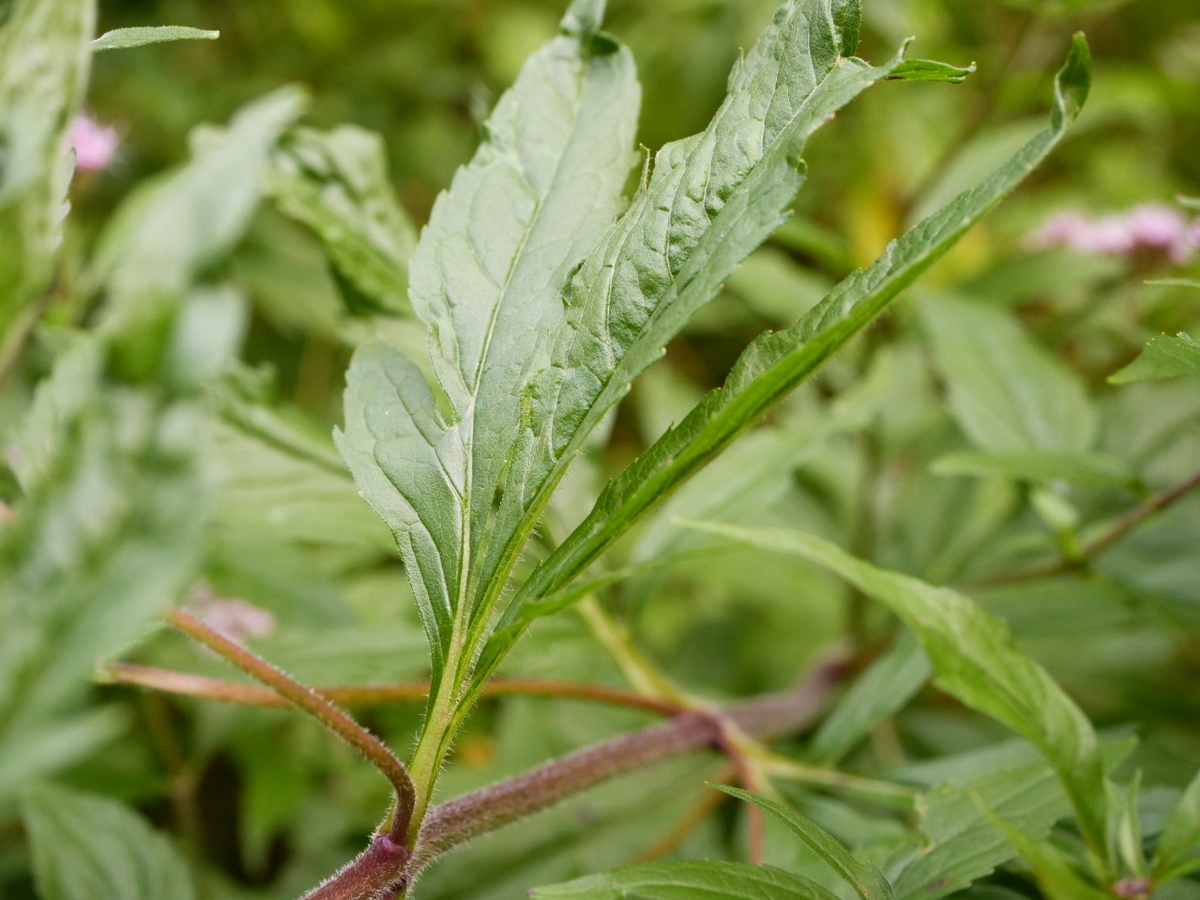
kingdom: Plantae
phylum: Tracheophyta
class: Magnoliopsida
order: Asterales
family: Asteraceae
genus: Eupatorium
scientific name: Eupatorium cannabinum
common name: Hemp-agrimony
